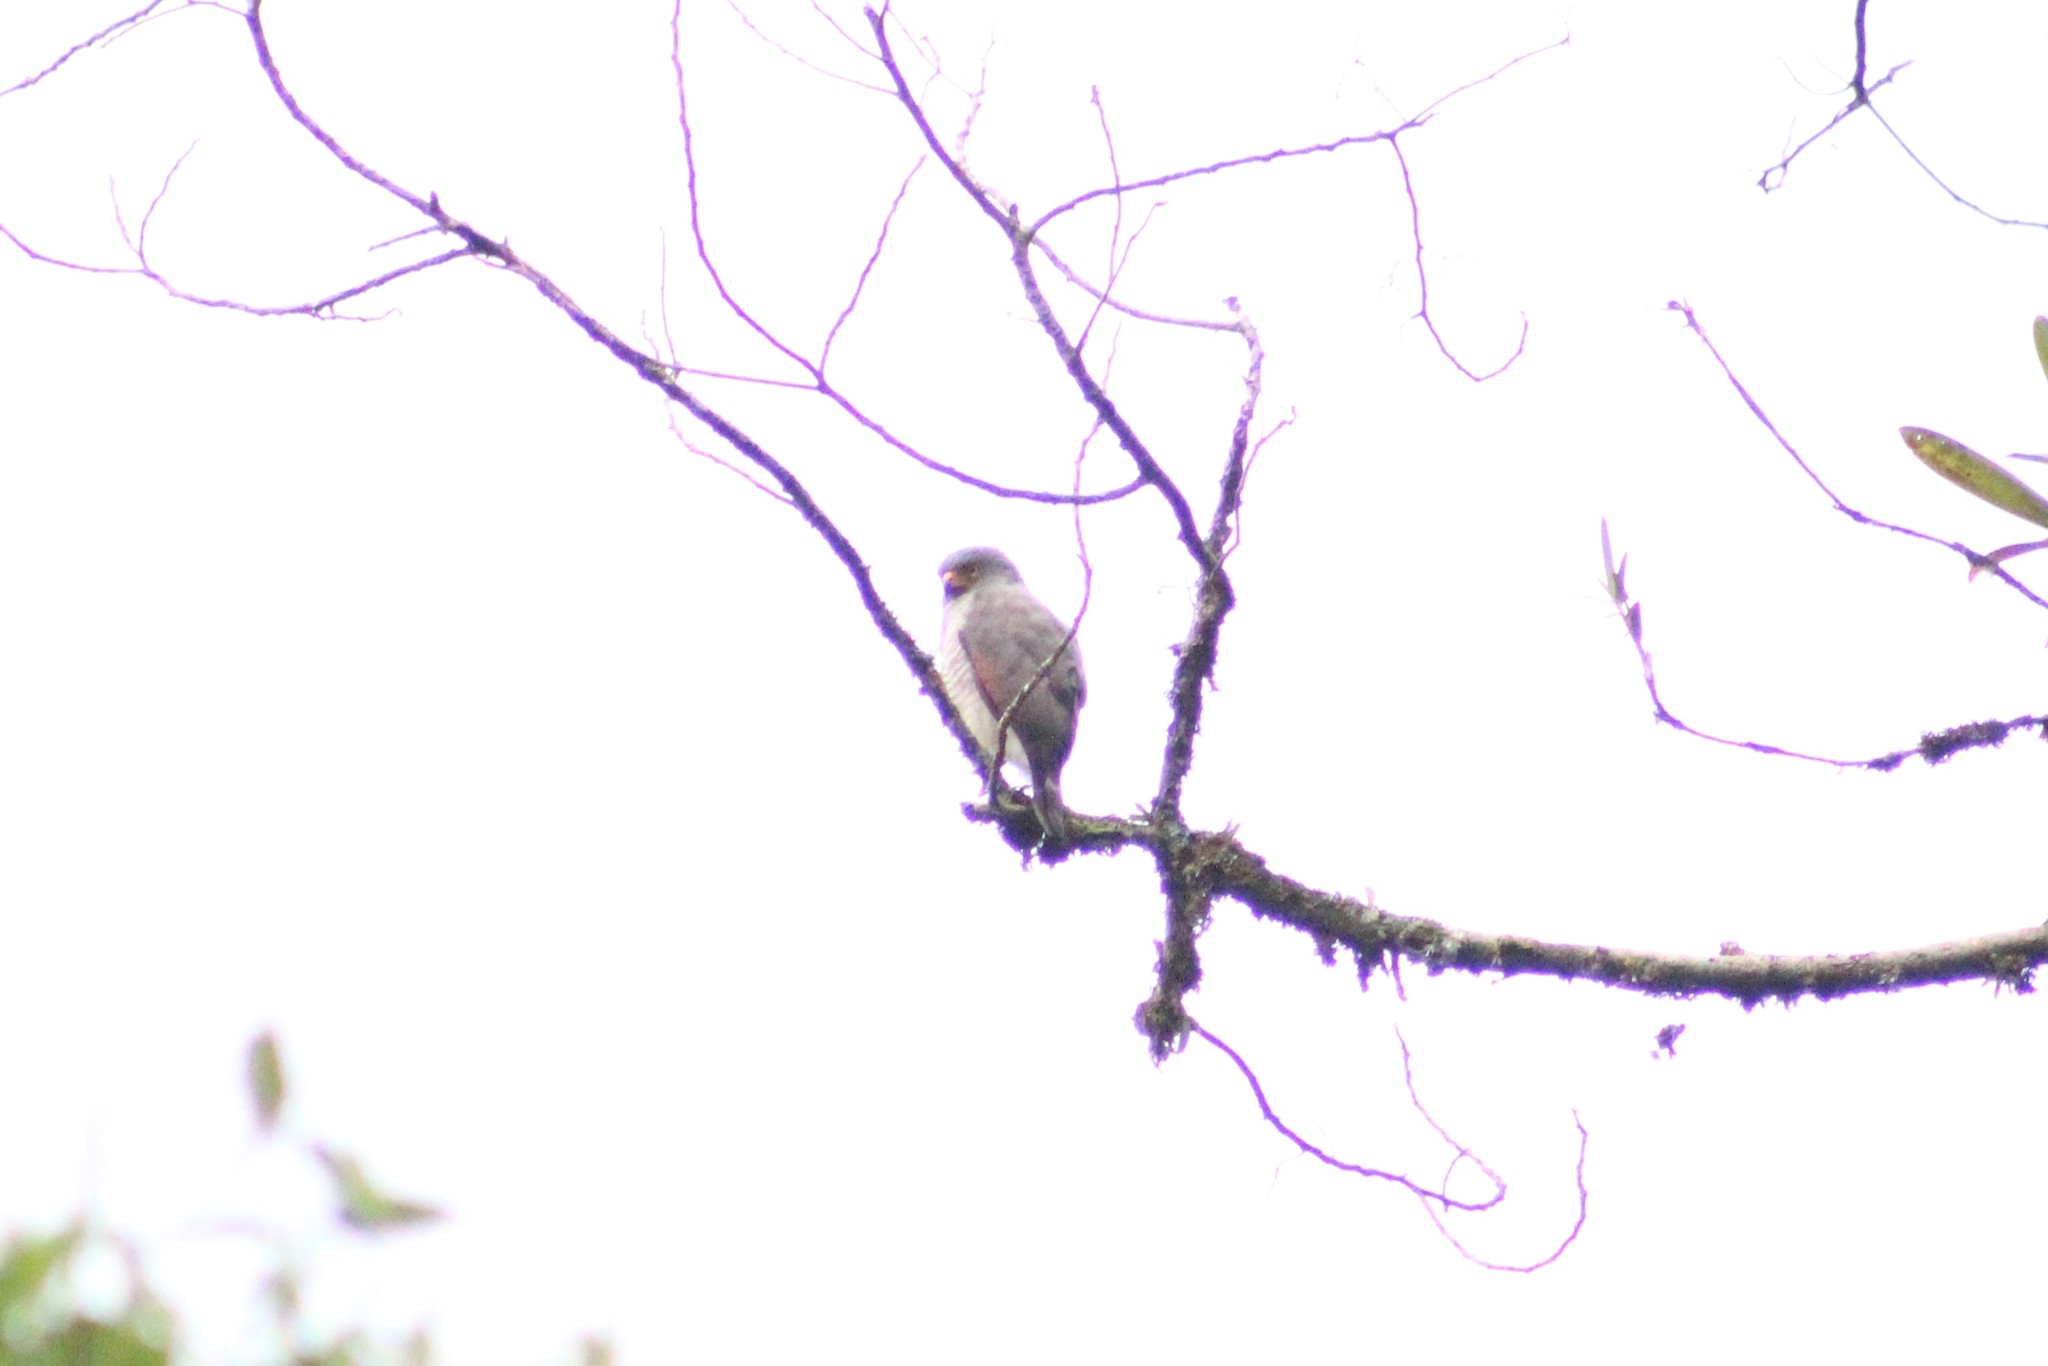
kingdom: Animalia
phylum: Chordata
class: Aves
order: Accipitriformes
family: Accipitridae
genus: Rupornis
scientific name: Rupornis magnirostris
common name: Roadside hawk
